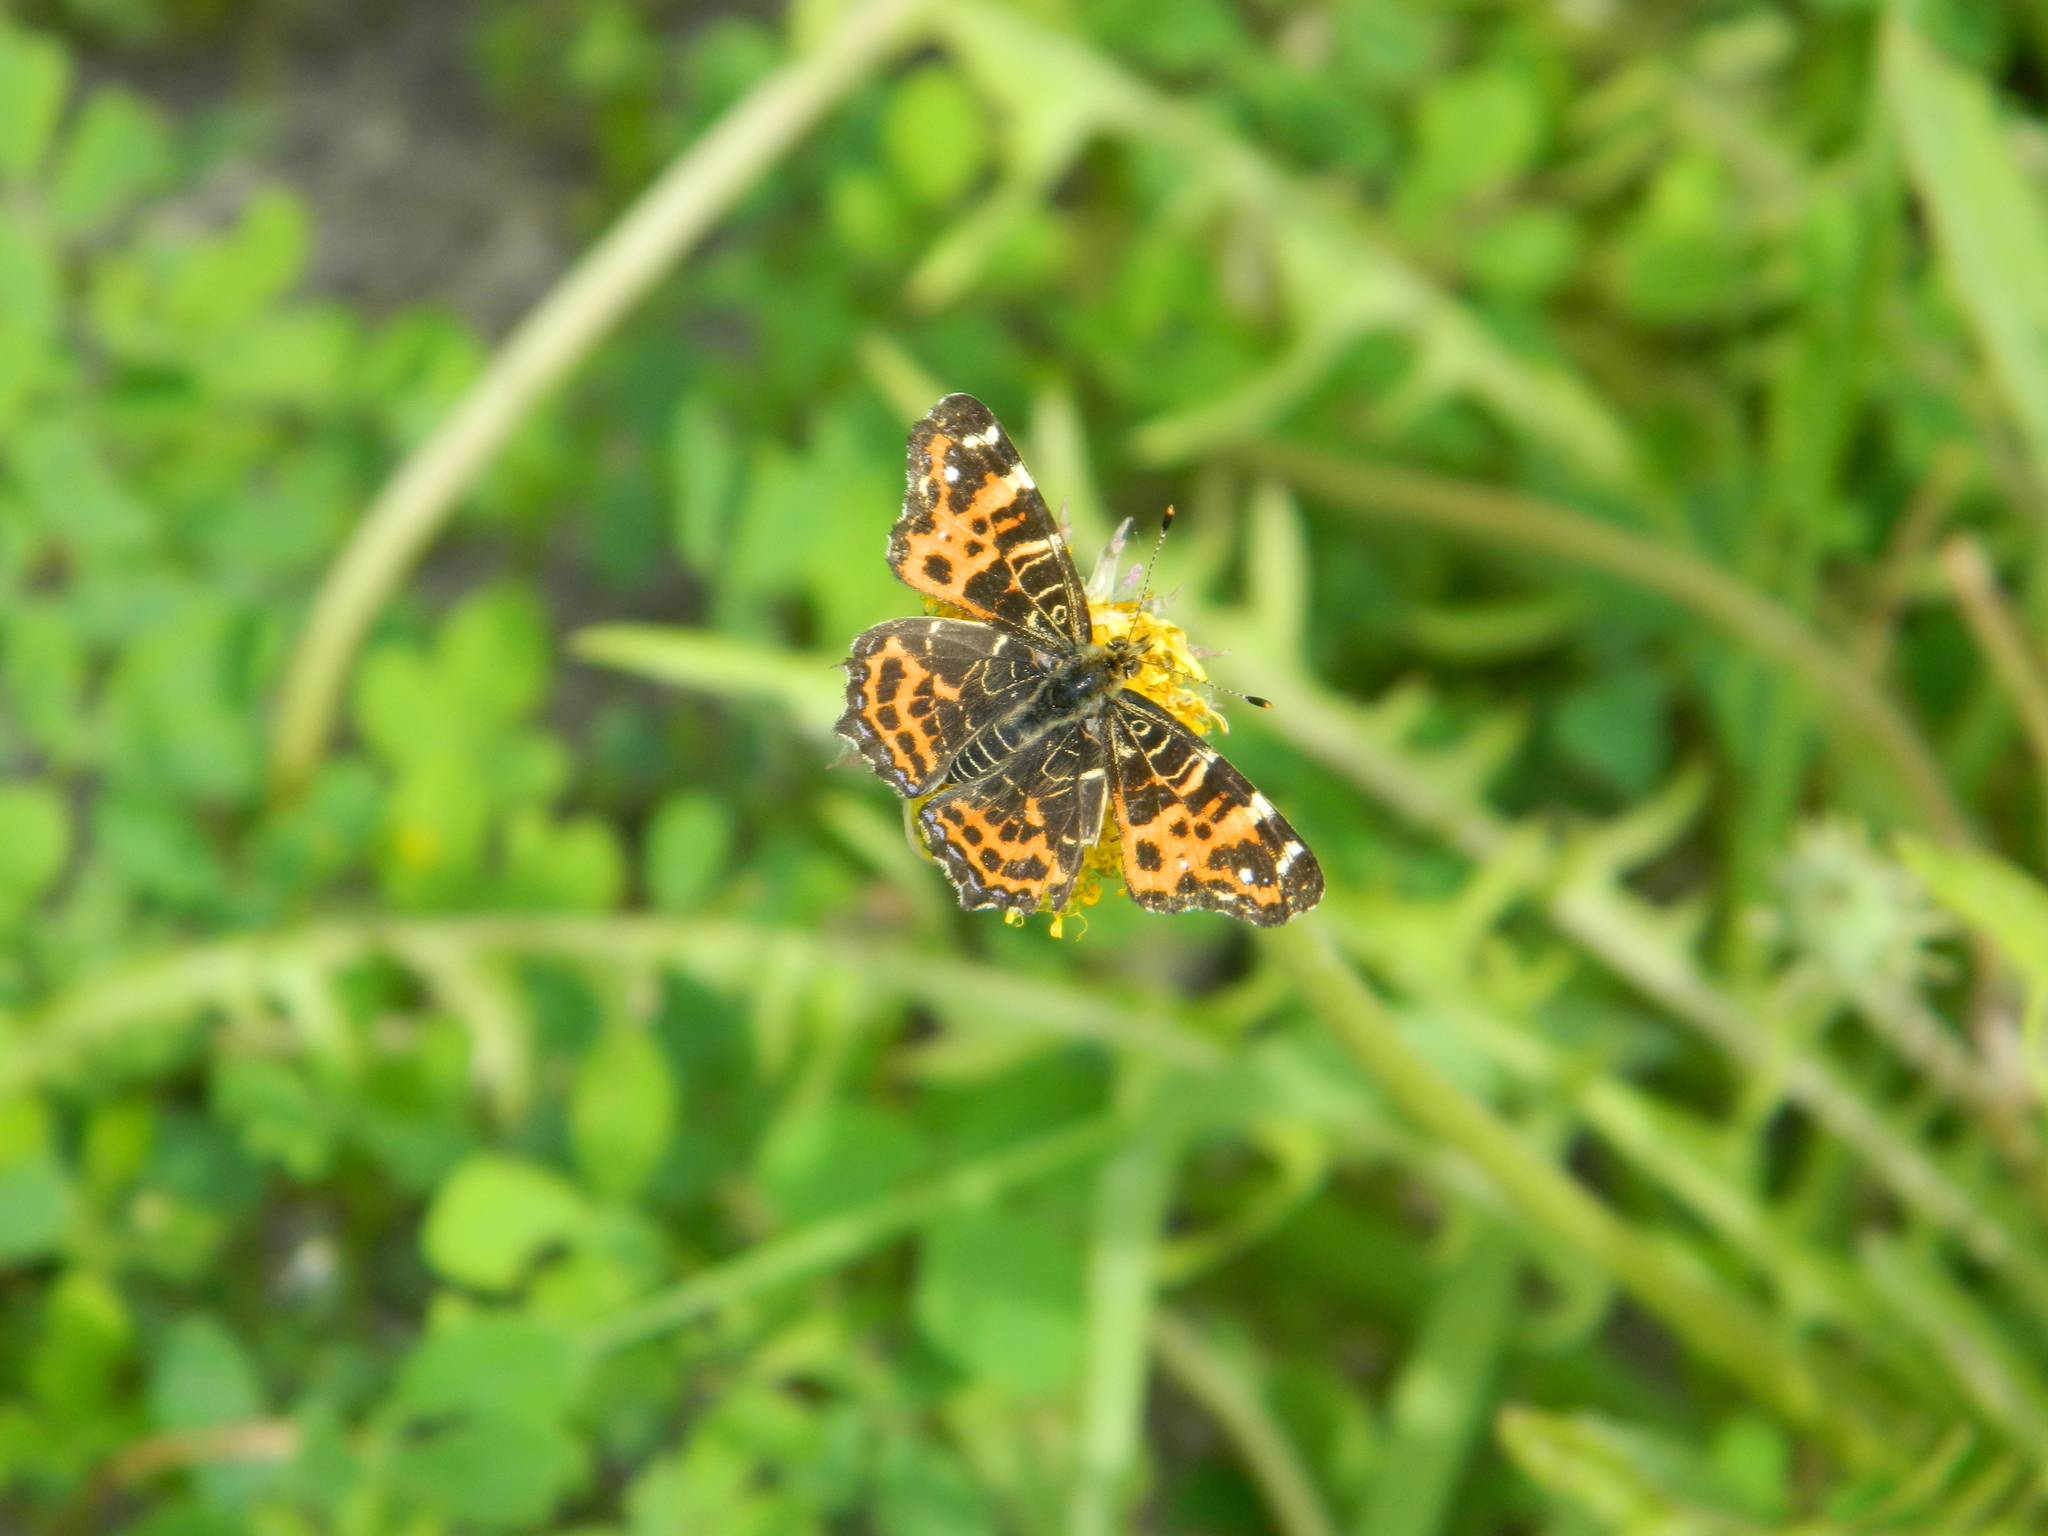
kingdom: Animalia
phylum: Arthropoda
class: Insecta
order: Lepidoptera
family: Nymphalidae
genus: Araschnia
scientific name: Araschnia levana
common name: Map butterfly
